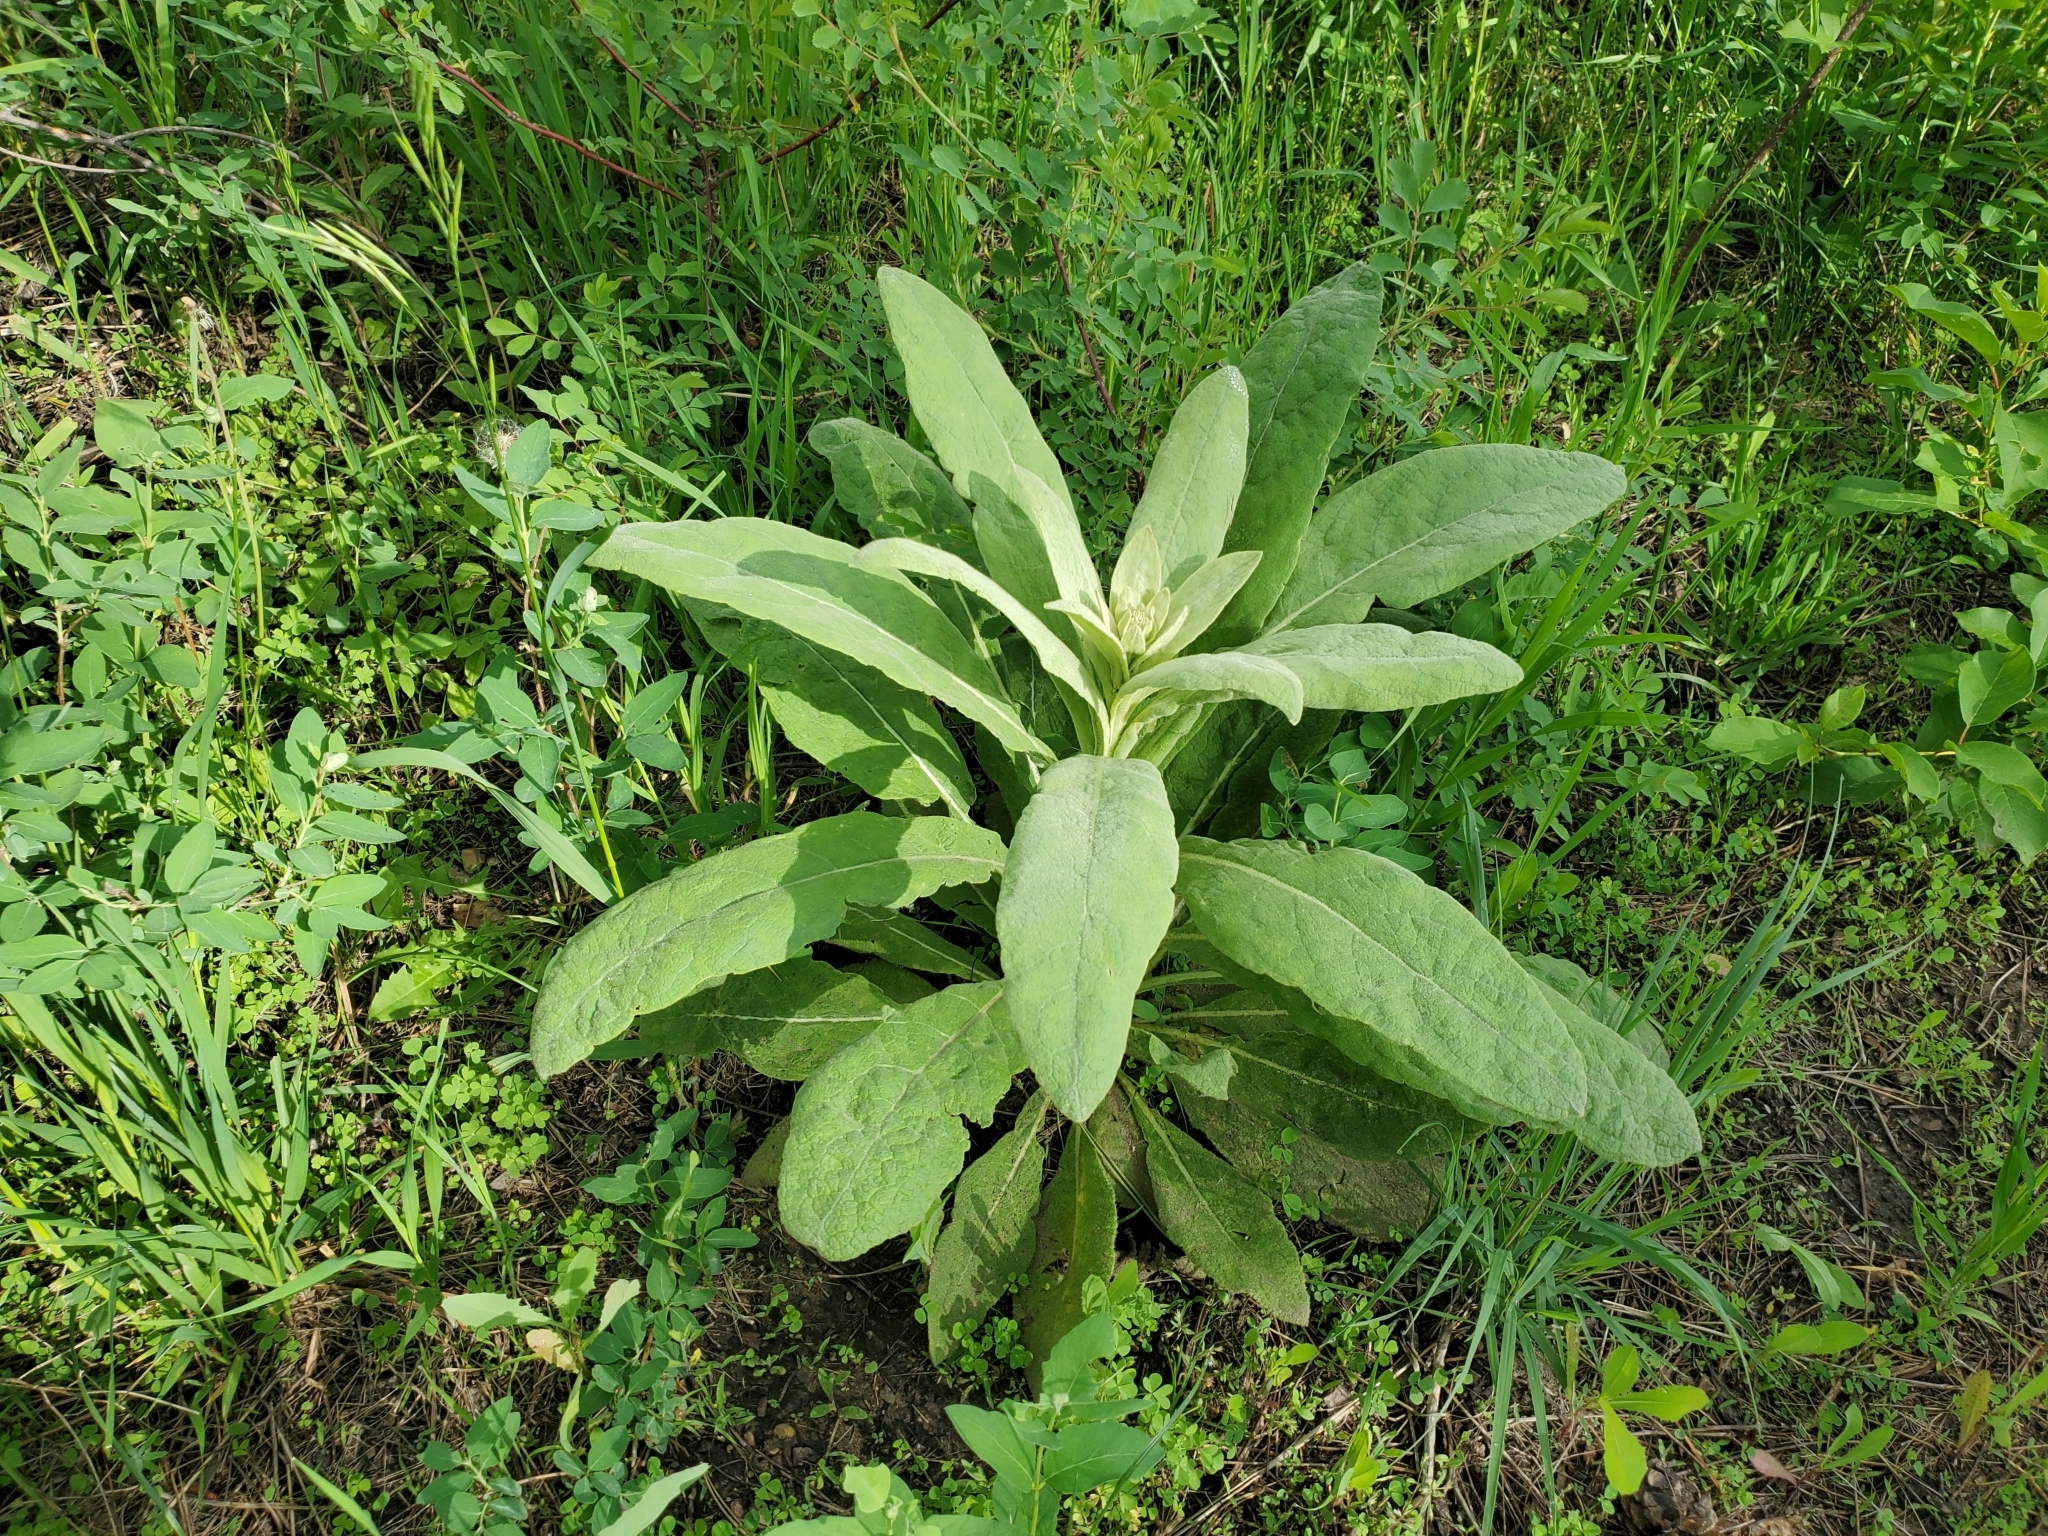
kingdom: Plantae
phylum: Tracheophyta
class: Magnoliopsida
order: Lamiales
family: Scrophulariaceae
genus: Verbascum
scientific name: Verbascum thapsus
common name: Common mullein
